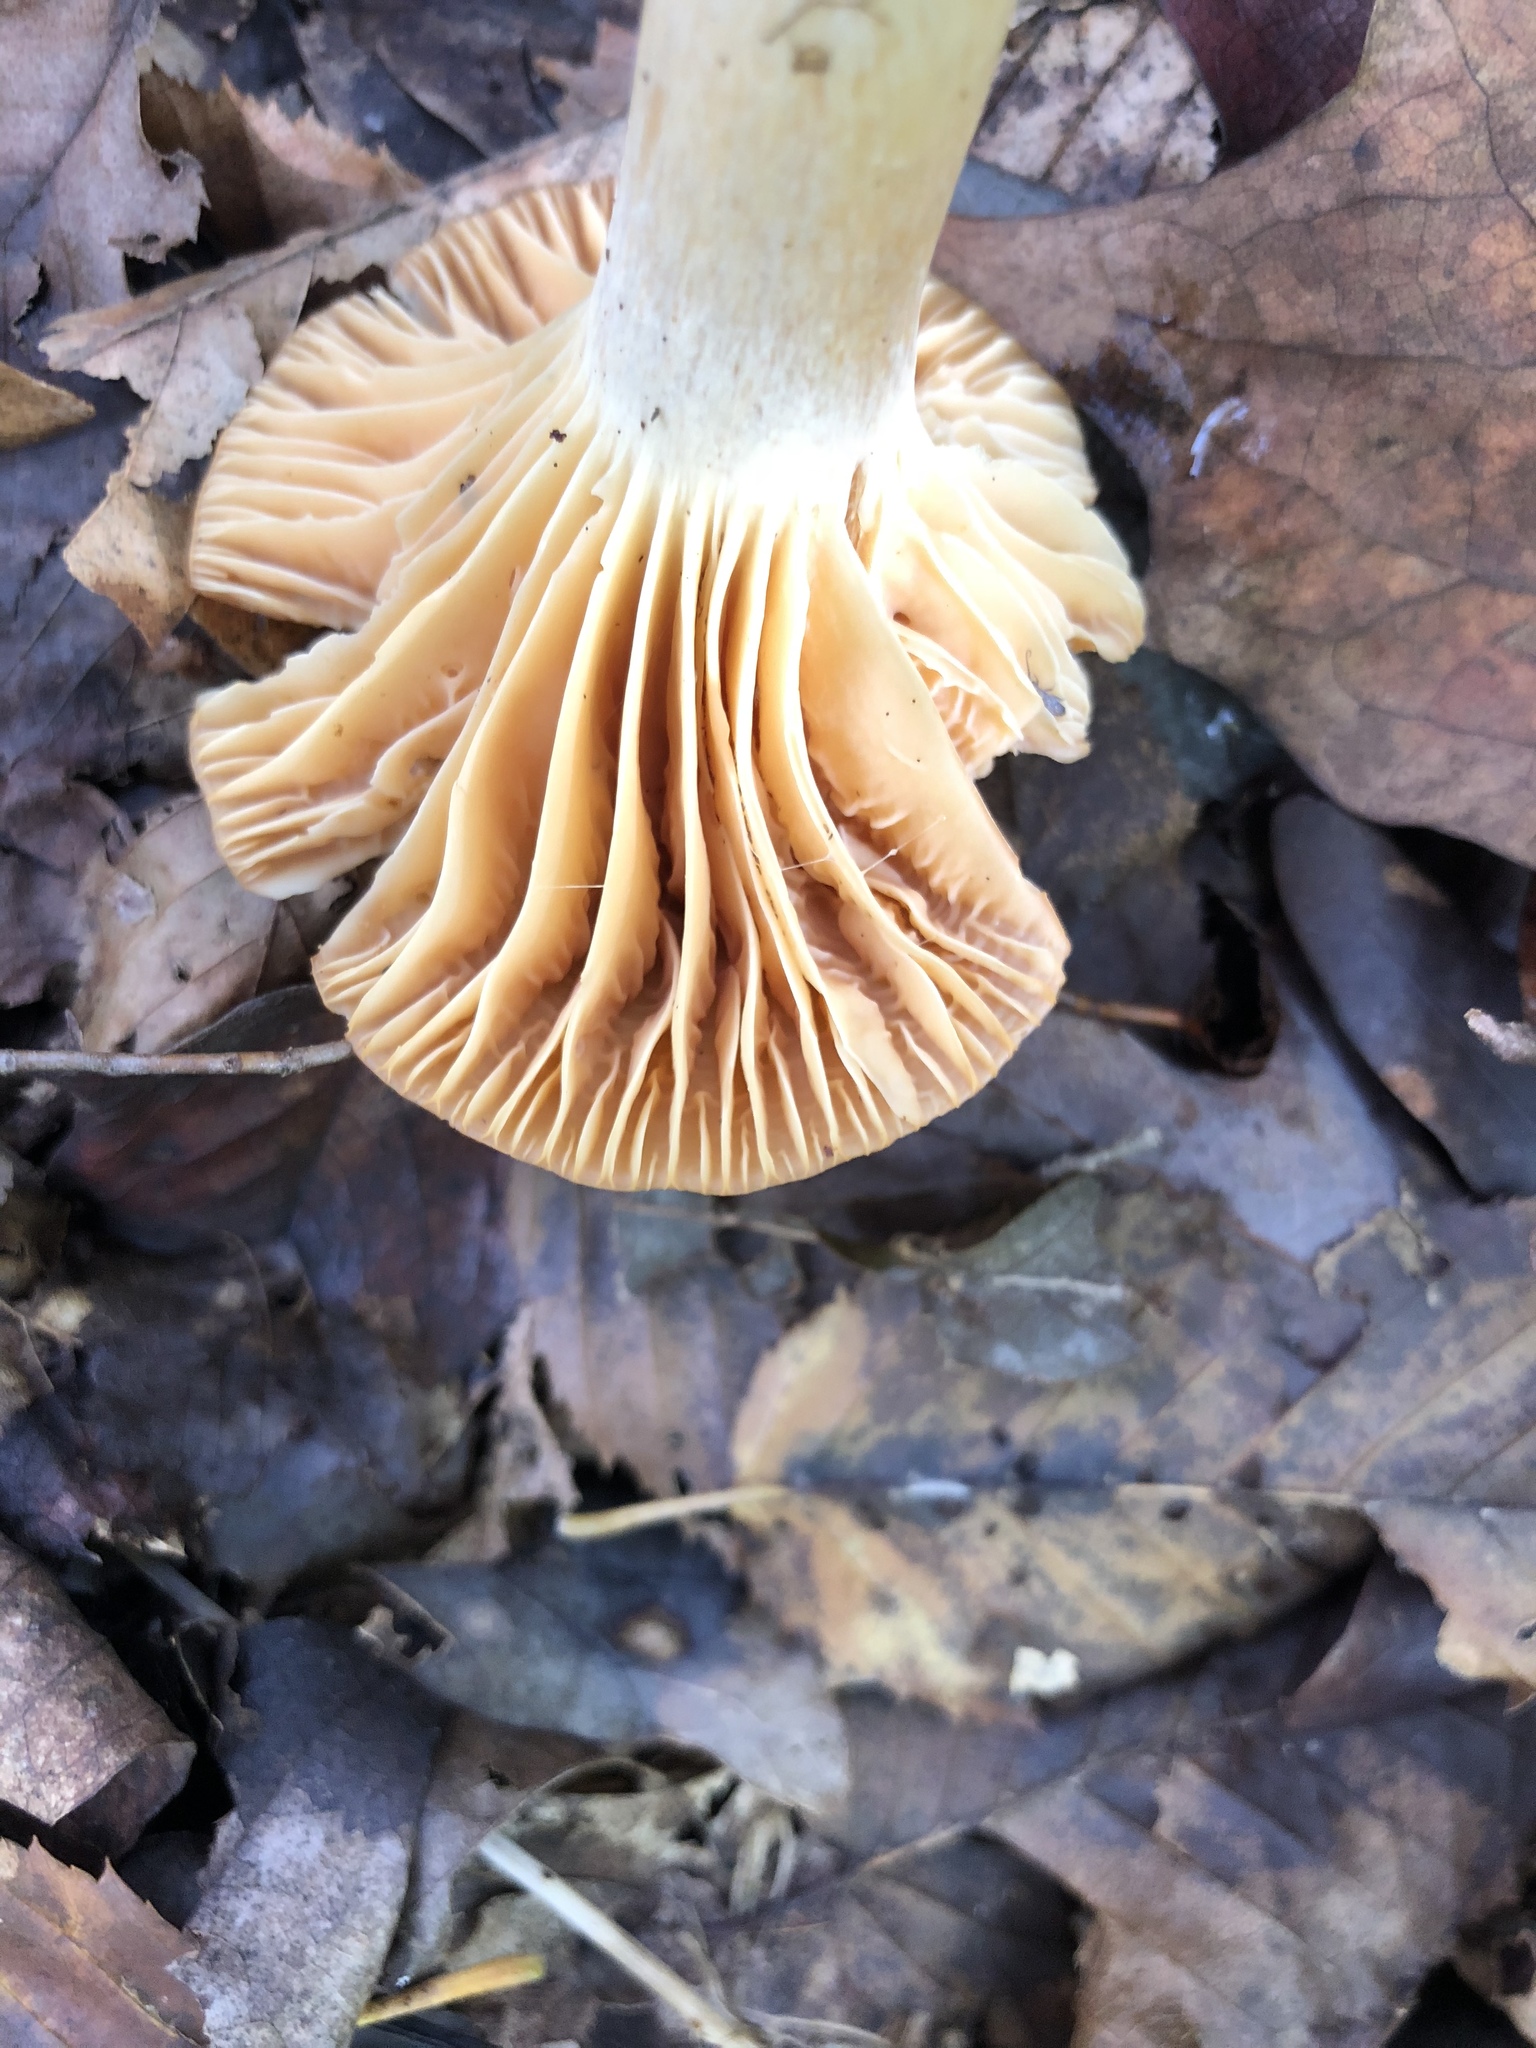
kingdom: Fungi
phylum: Basidiomycota
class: Agaricomycetes
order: Agaricales
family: Hygrophoraceae
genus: Cuphophyllus
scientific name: Cuphophyllus pratensis
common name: Meadow waxcap
